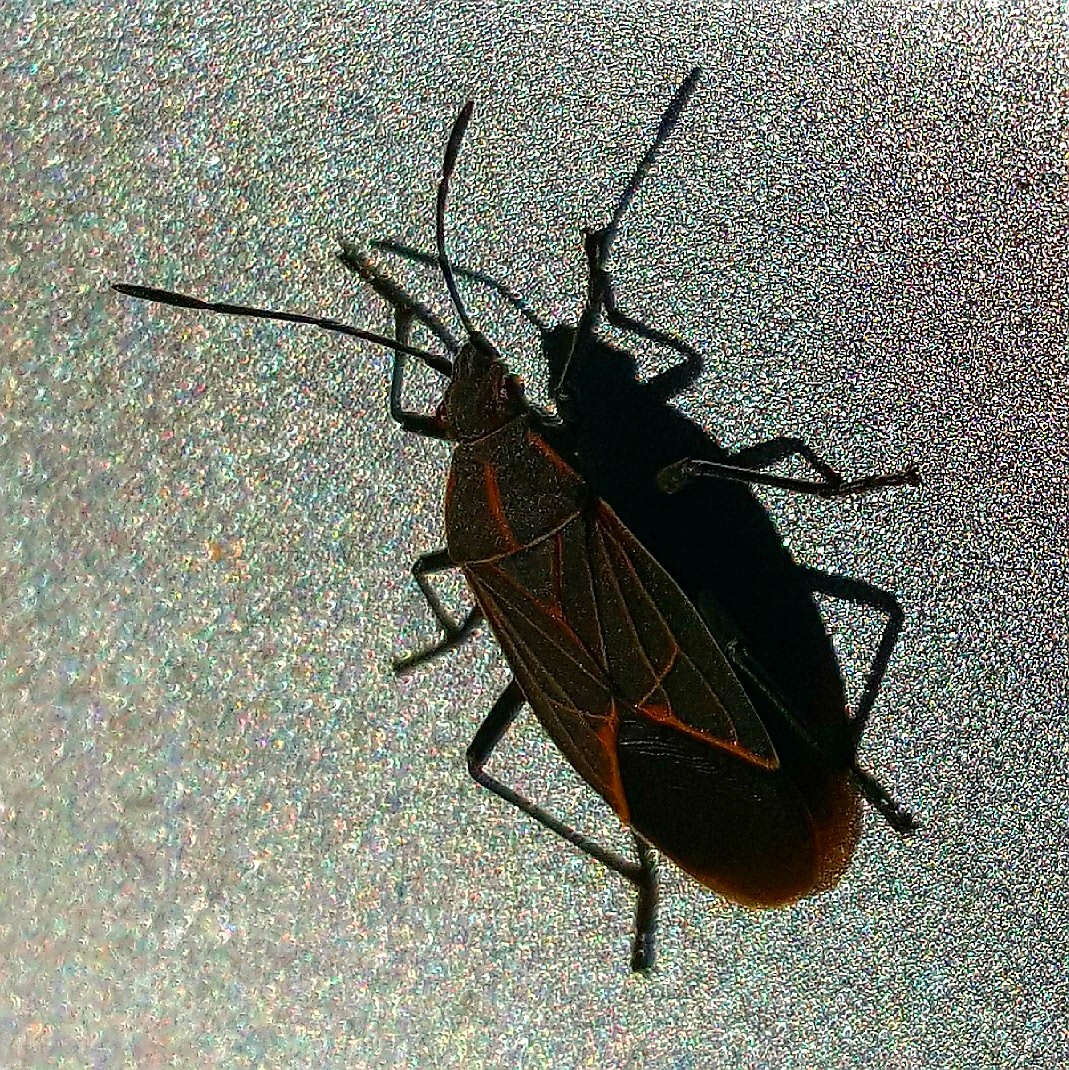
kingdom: Animalia
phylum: Arthropoda
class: Insecta
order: Hemiptera
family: Rhopalidae
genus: Boisea
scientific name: Boisea rubrolineata
